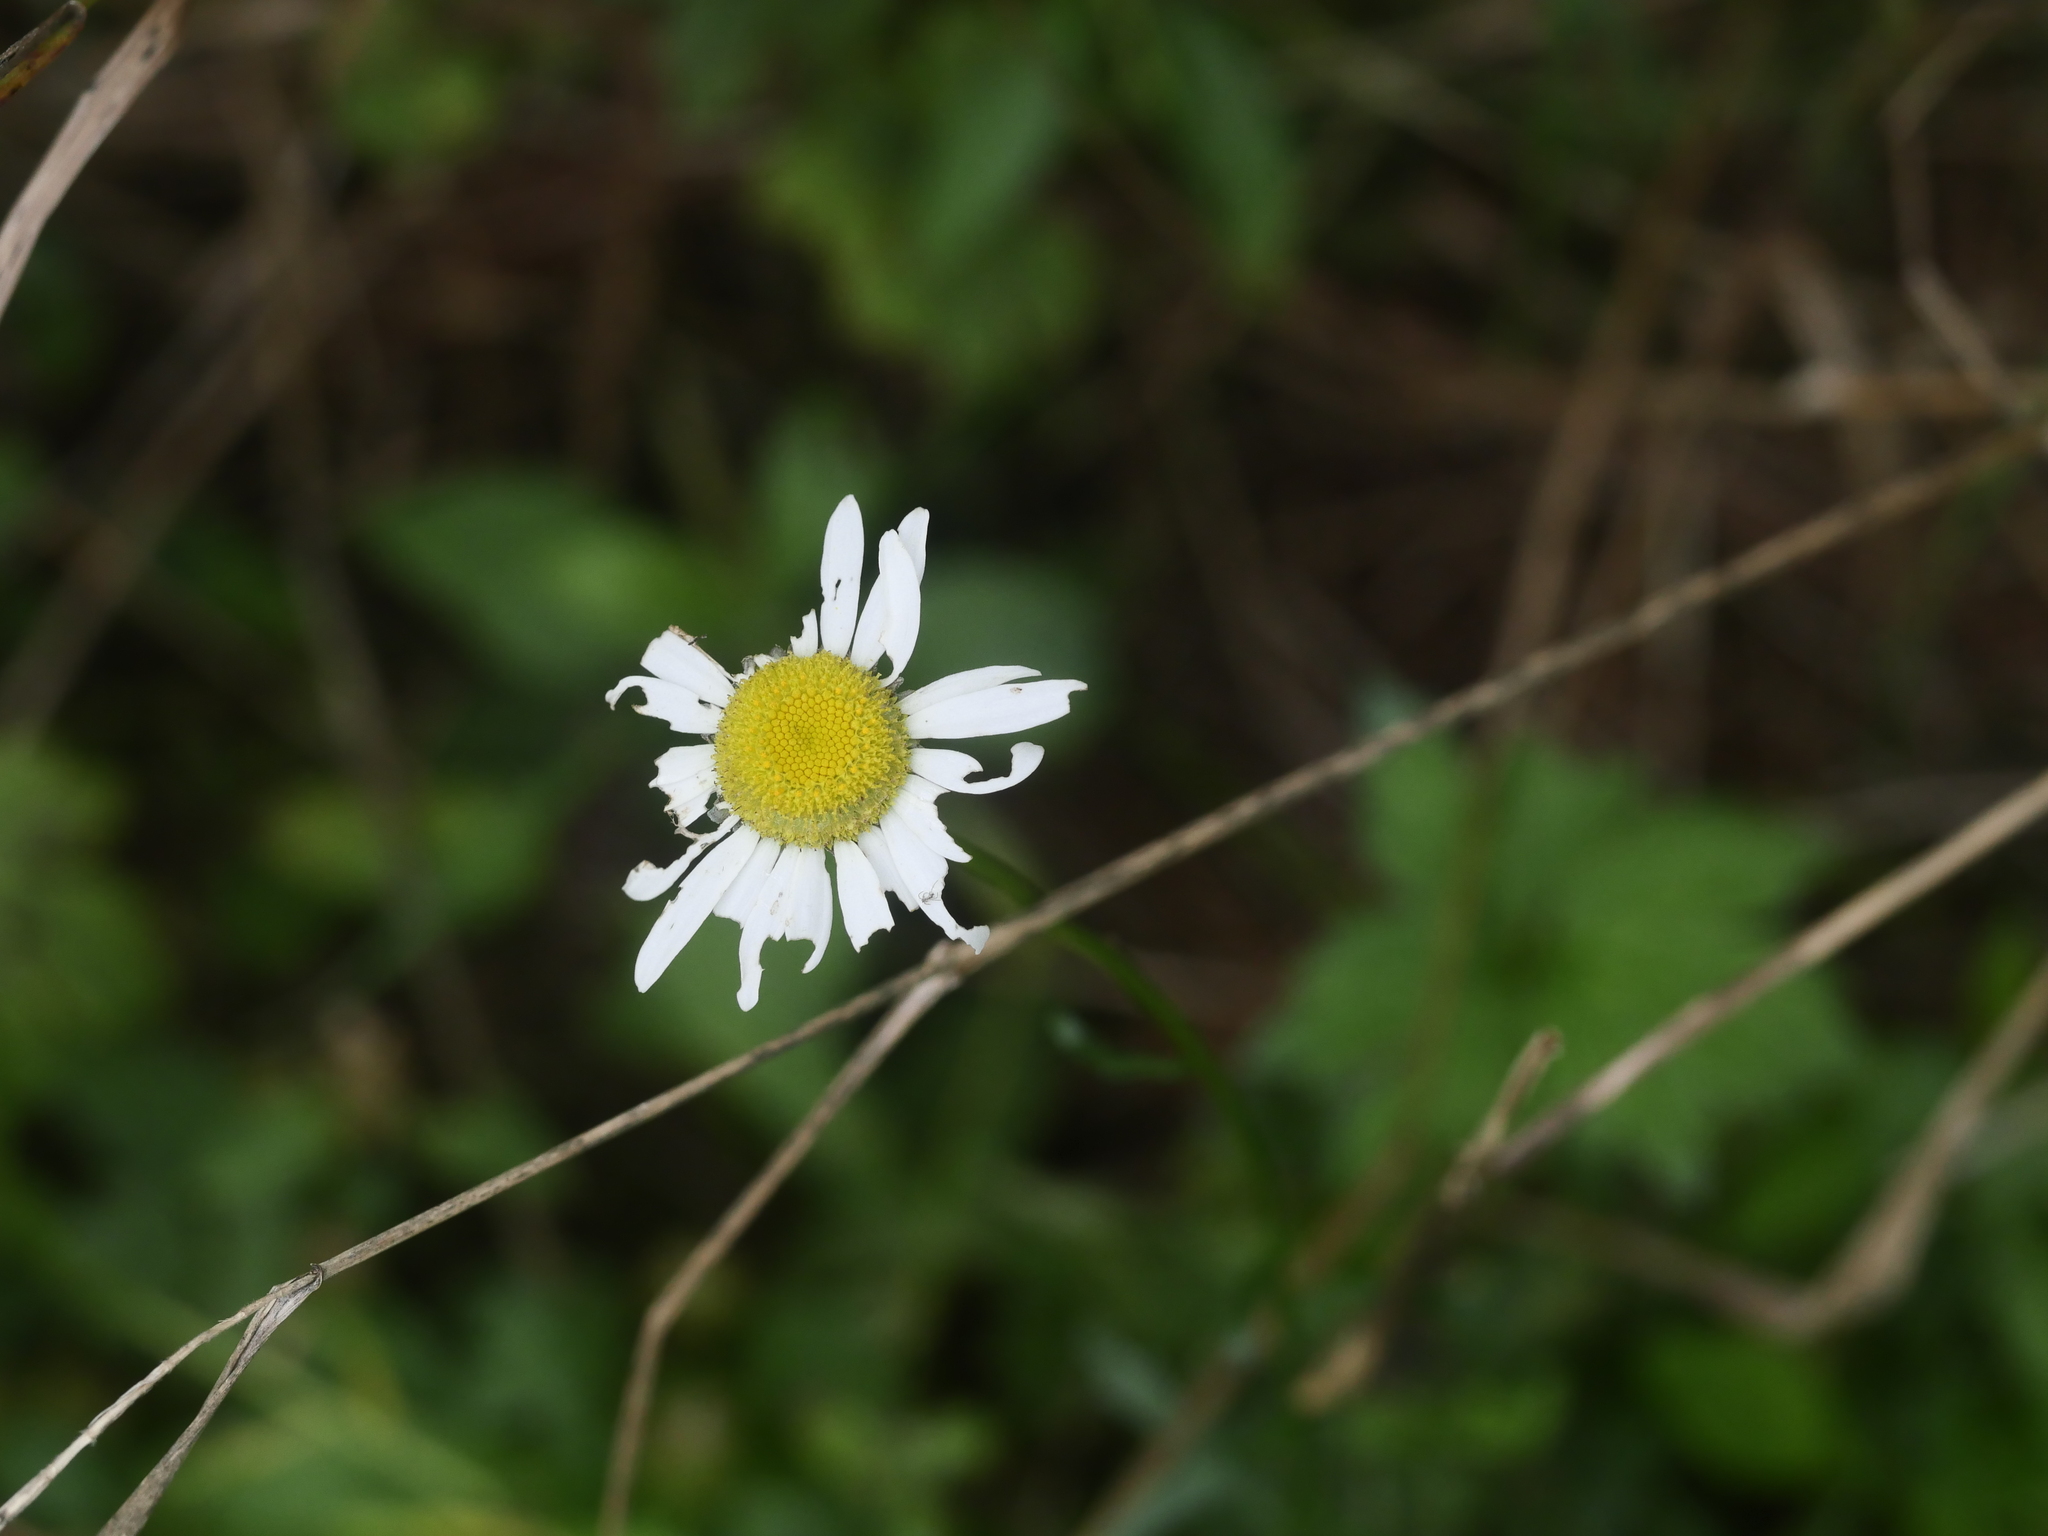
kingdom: Plantae
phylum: Tracheophyta
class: Magnoliopsida
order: Asterales
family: Asteraceae
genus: Leucanthemum
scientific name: Leucanthemum vulgare
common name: Oxeye daisy
